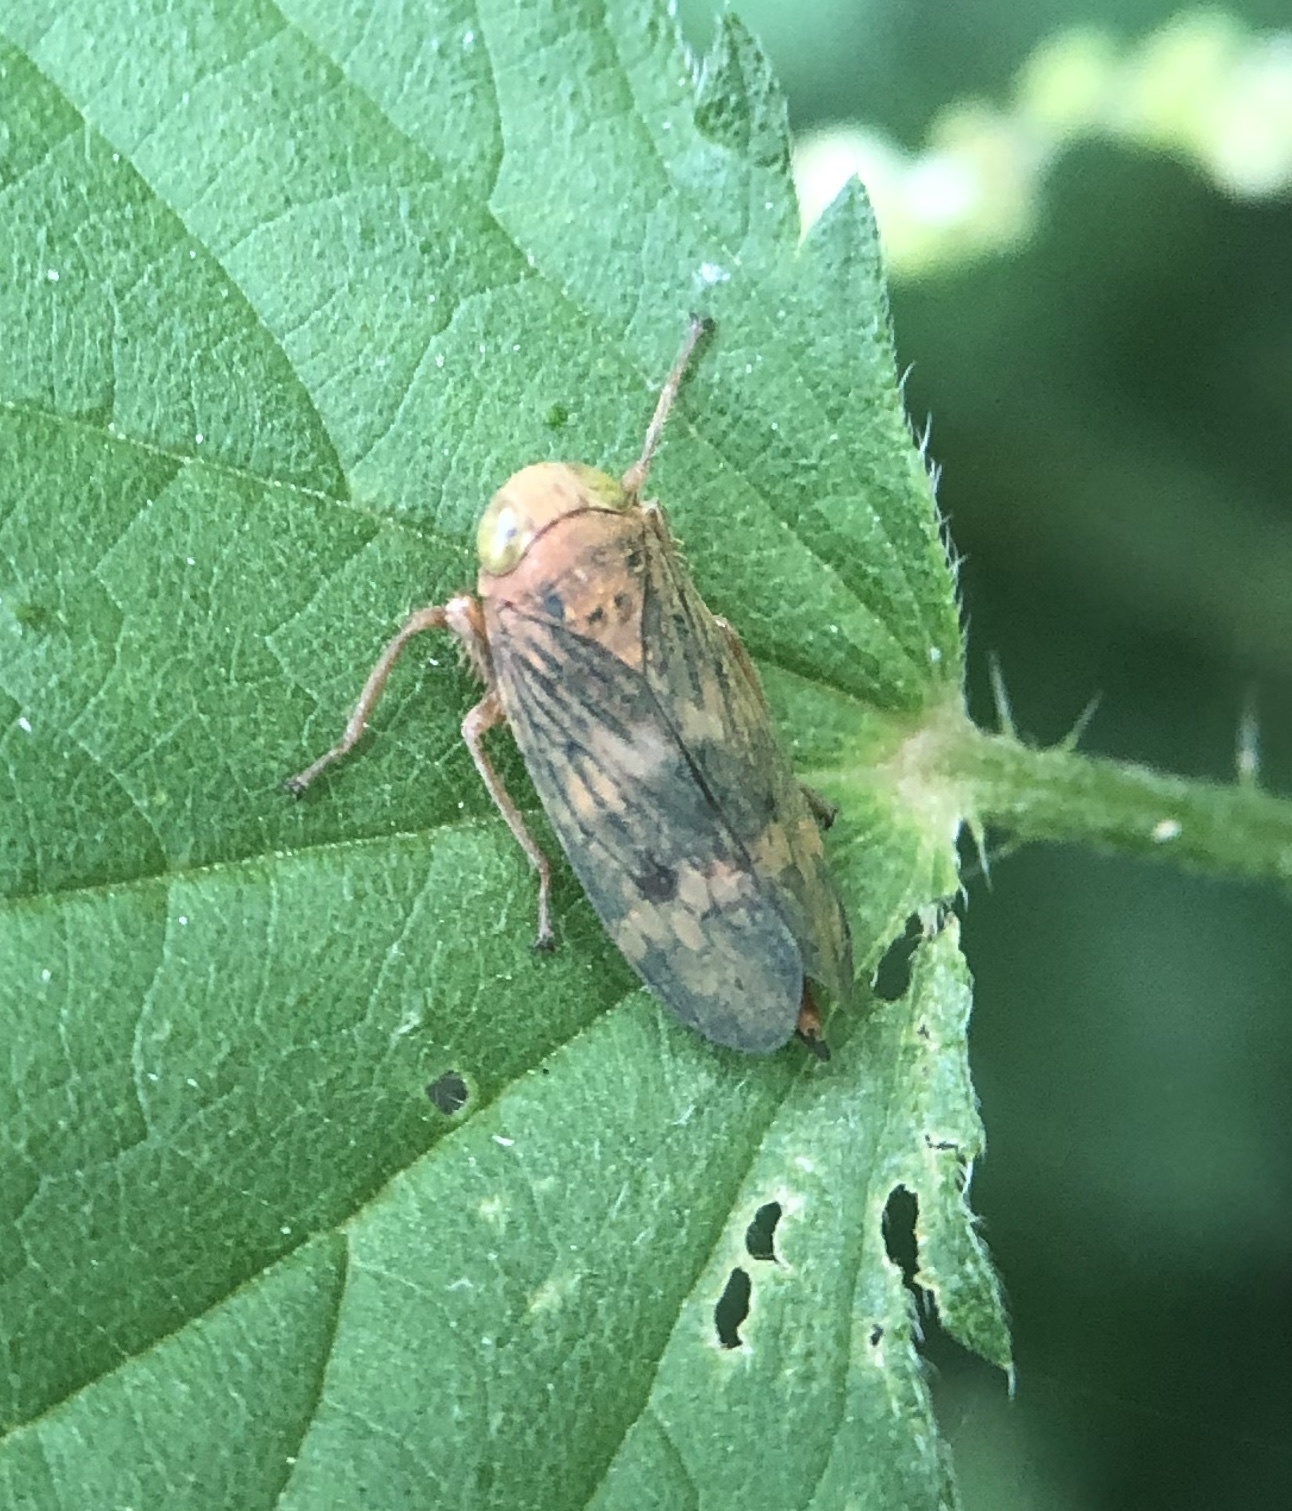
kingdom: Animalia
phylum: Arthropoda
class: Insecta
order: Hemiptera
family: Cicadellidae
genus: Jikradia
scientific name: Jikradia olitoria
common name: Coppery leafhopper
